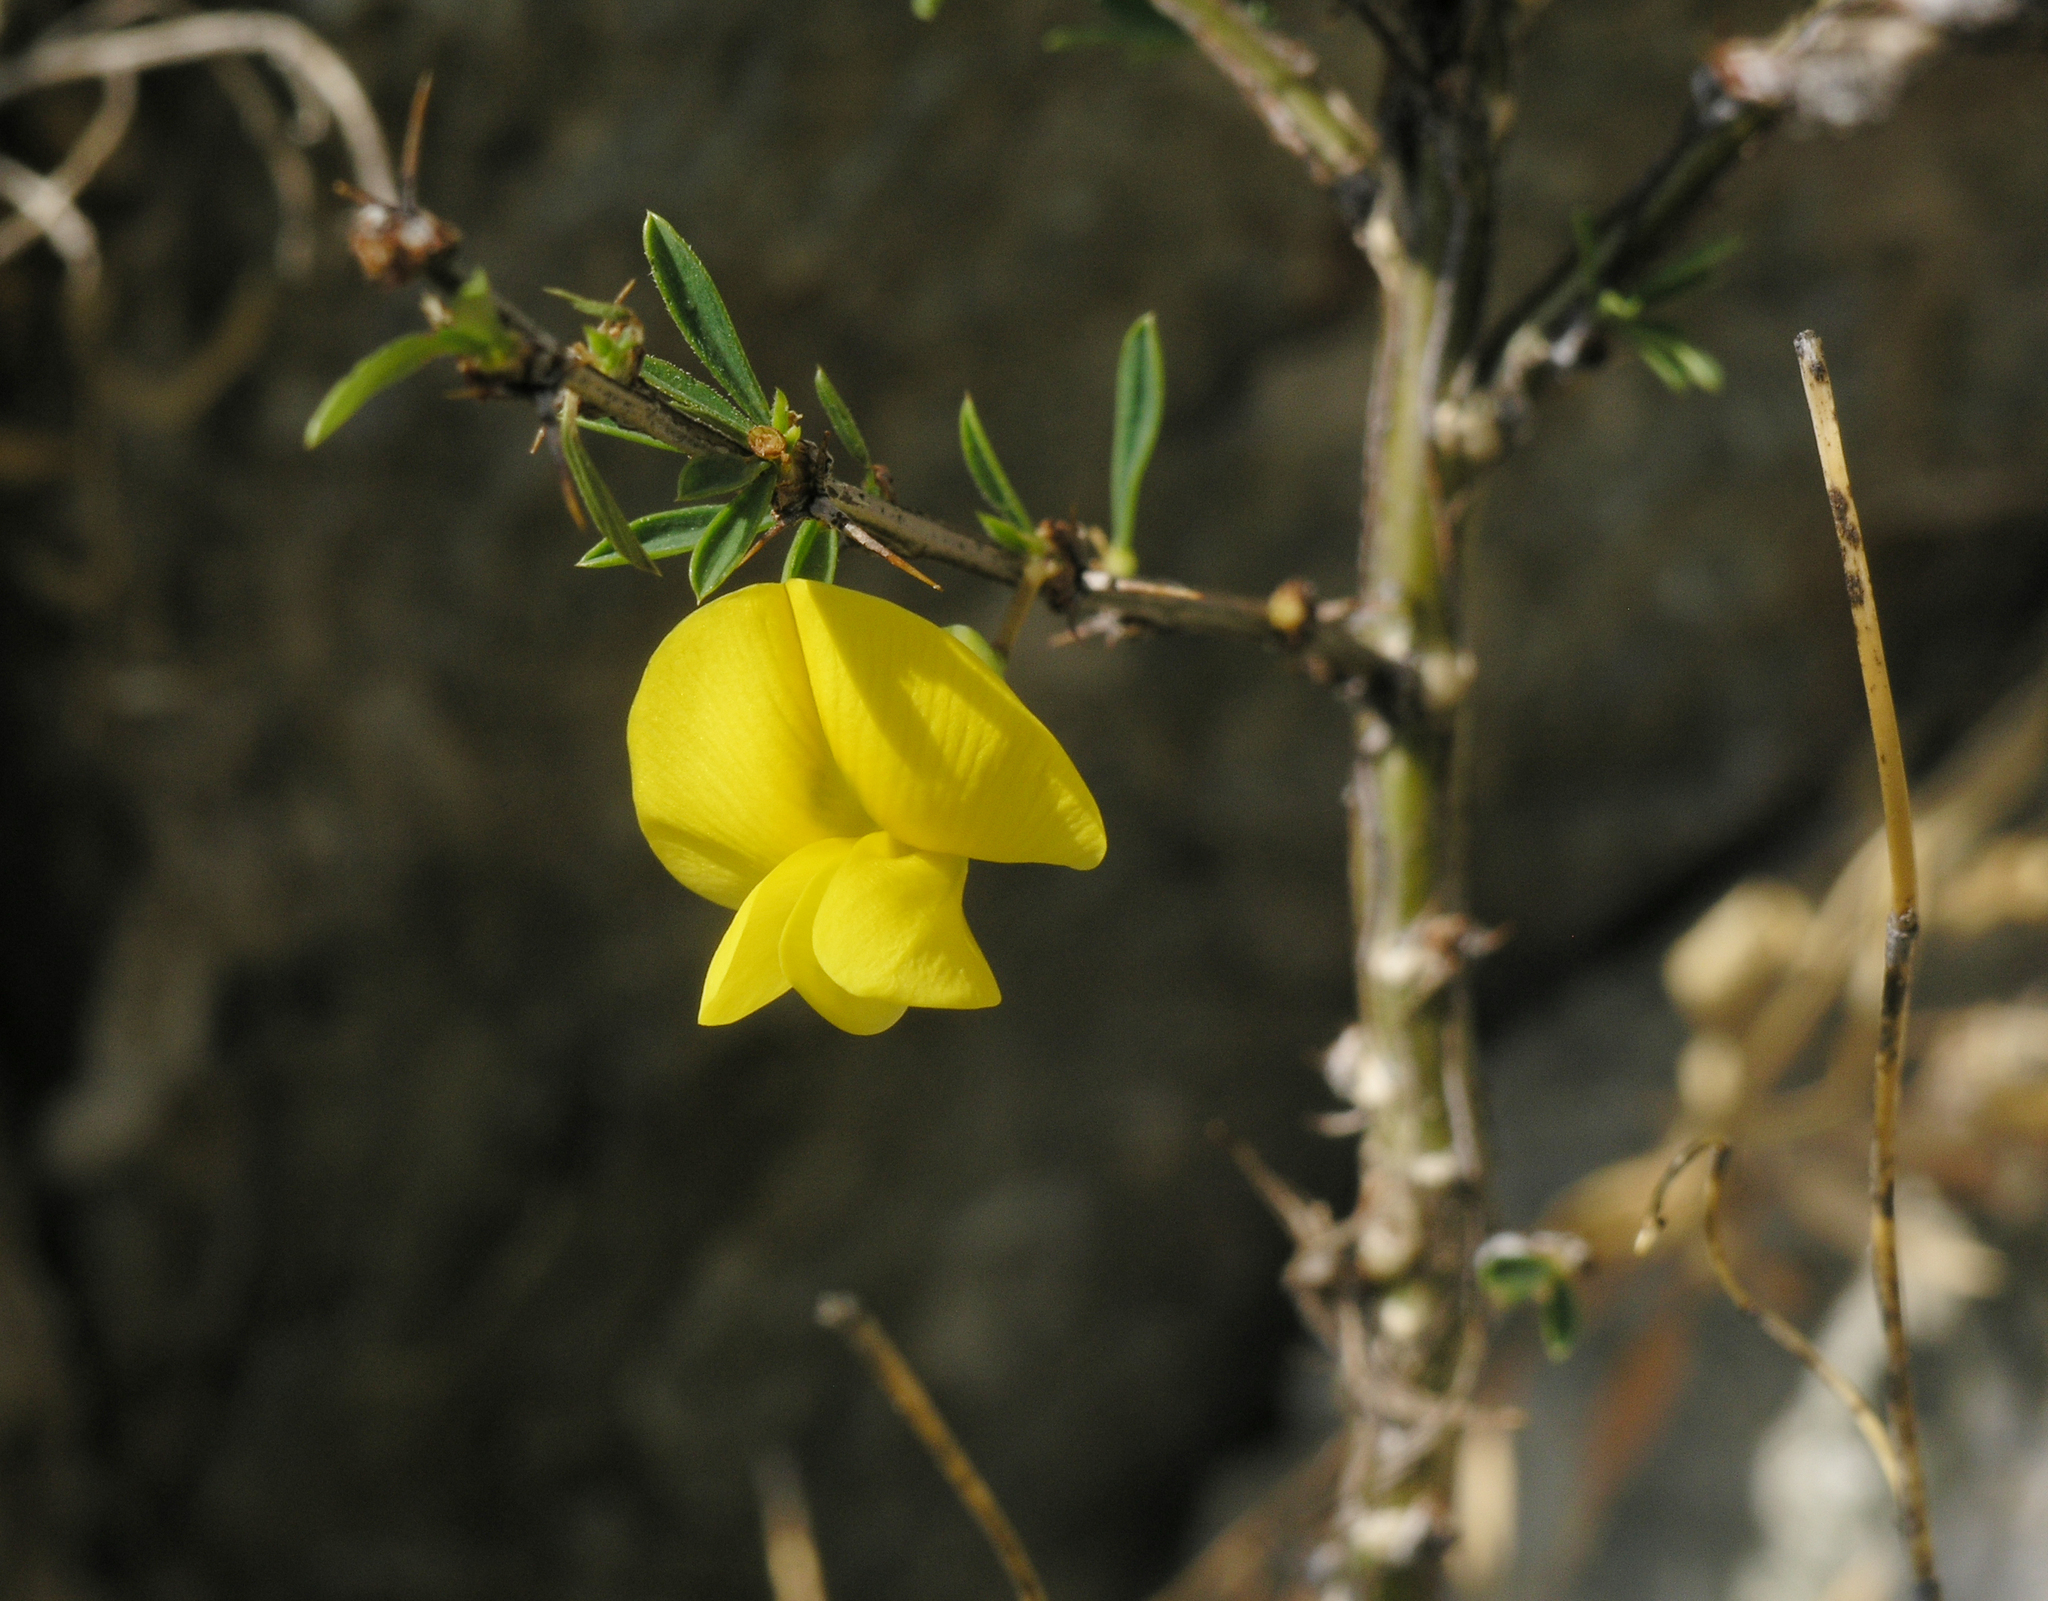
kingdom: Plantae
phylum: Tracheophyta
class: Magnoliopsida
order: Fabales
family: Fabaceae
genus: Caragana
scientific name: Caragana pygmaea
